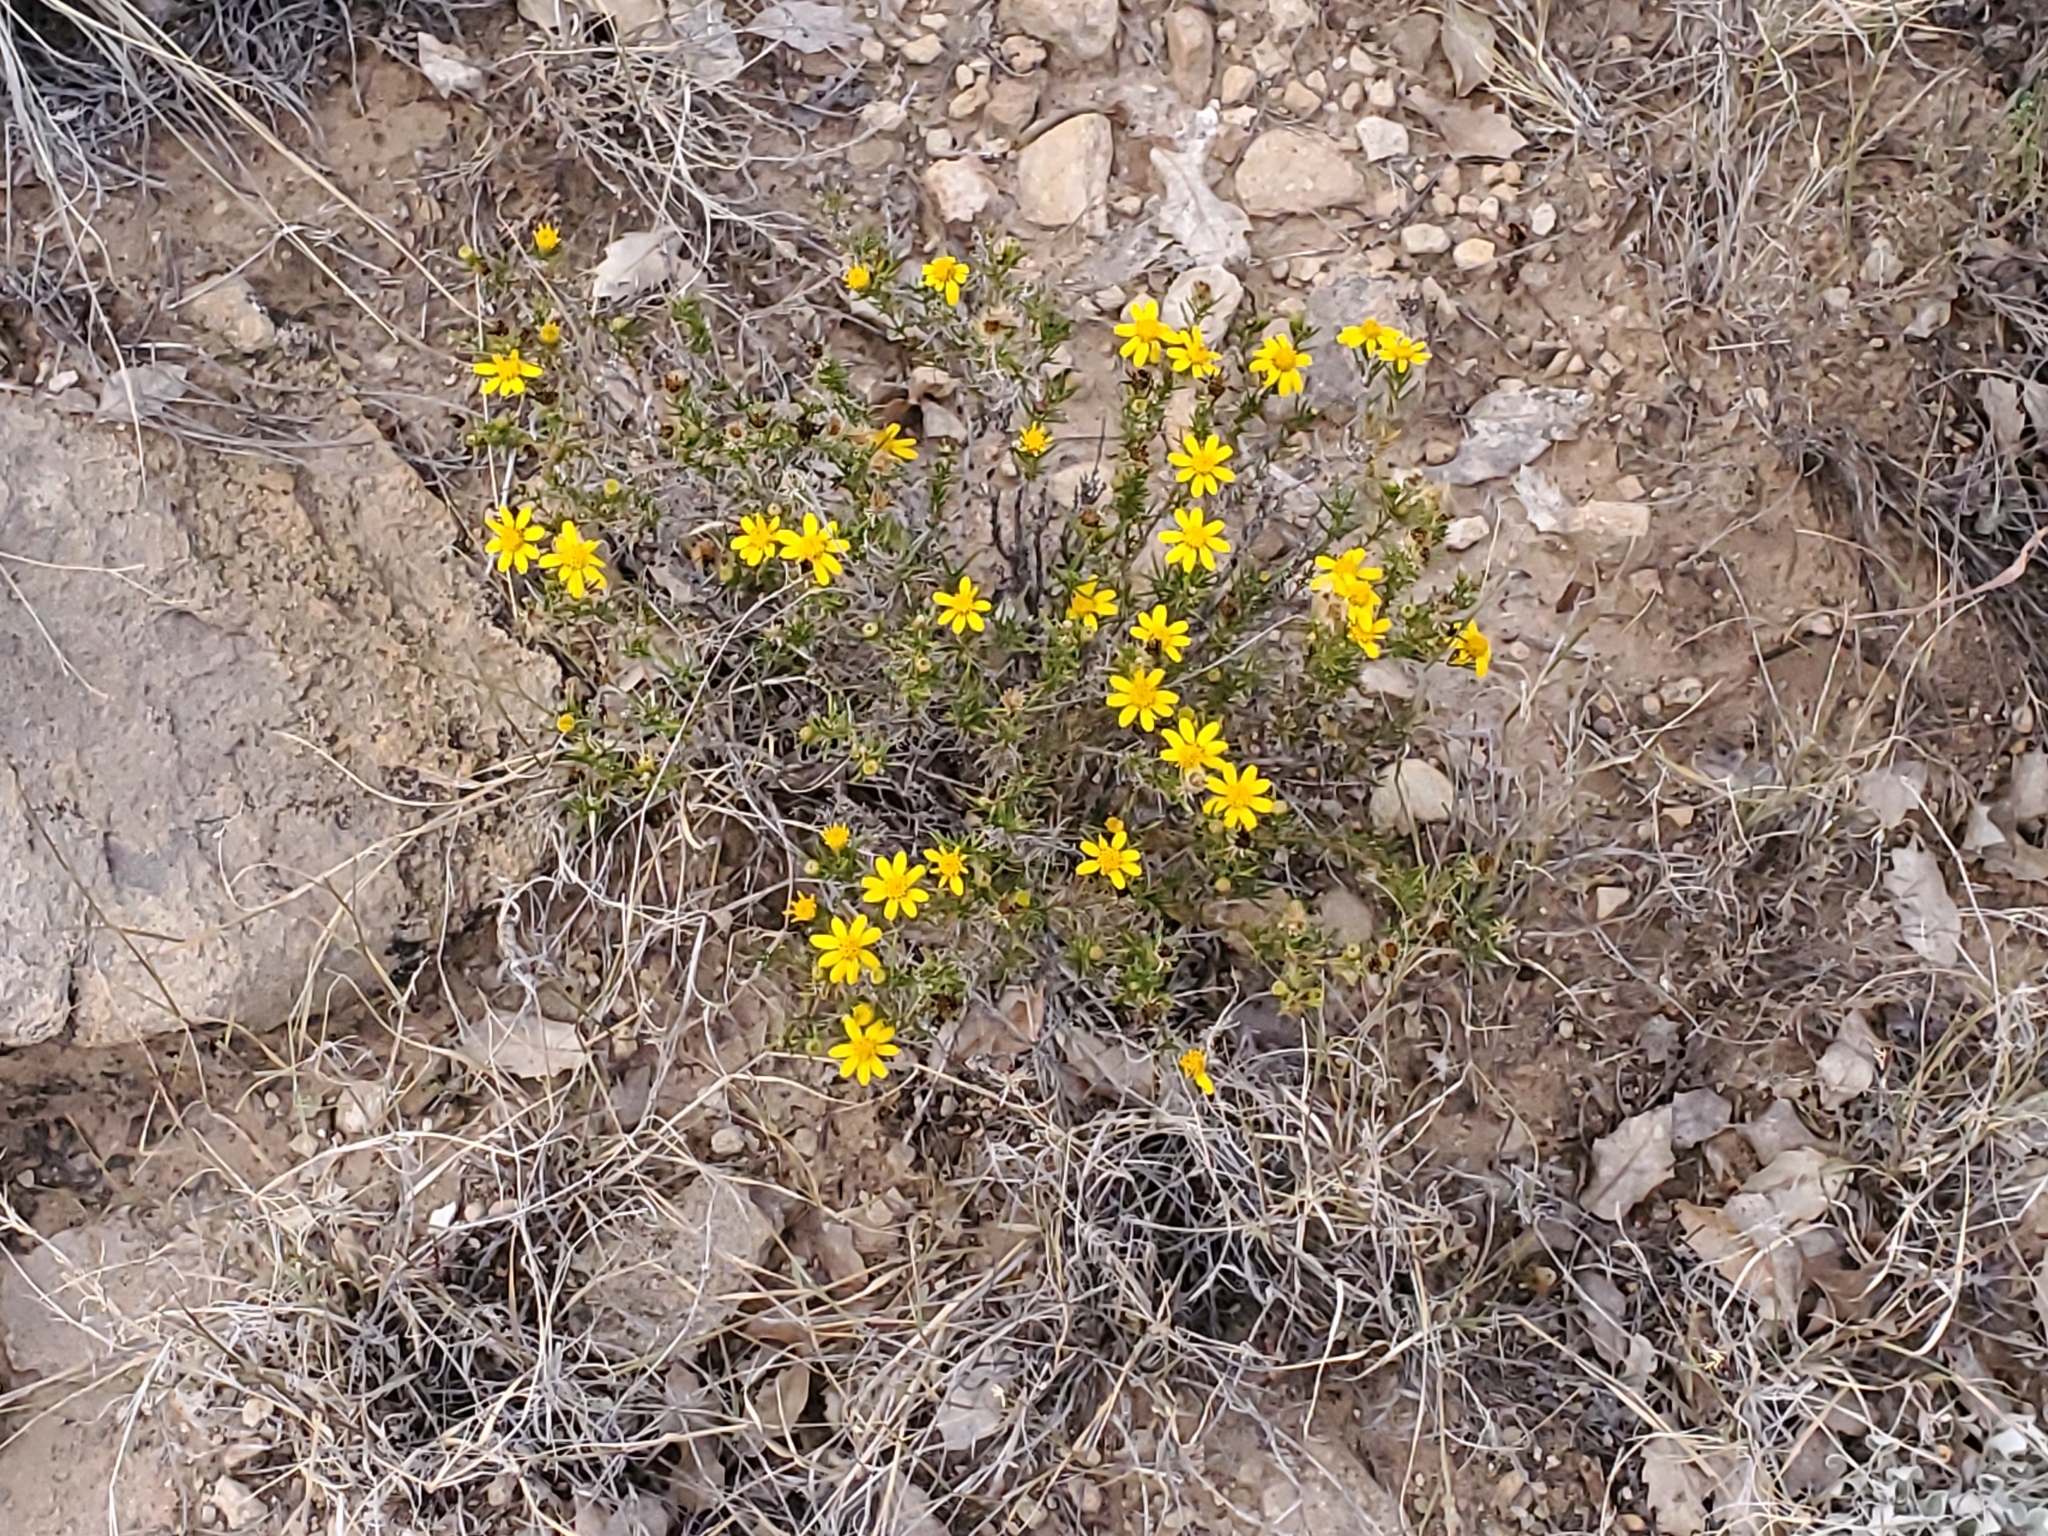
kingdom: Plantae
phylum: Tracheophyta
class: Magnoliopsida
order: Asterales
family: Asteraceae
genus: Thymophylla
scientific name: Thymophylla acerosa
